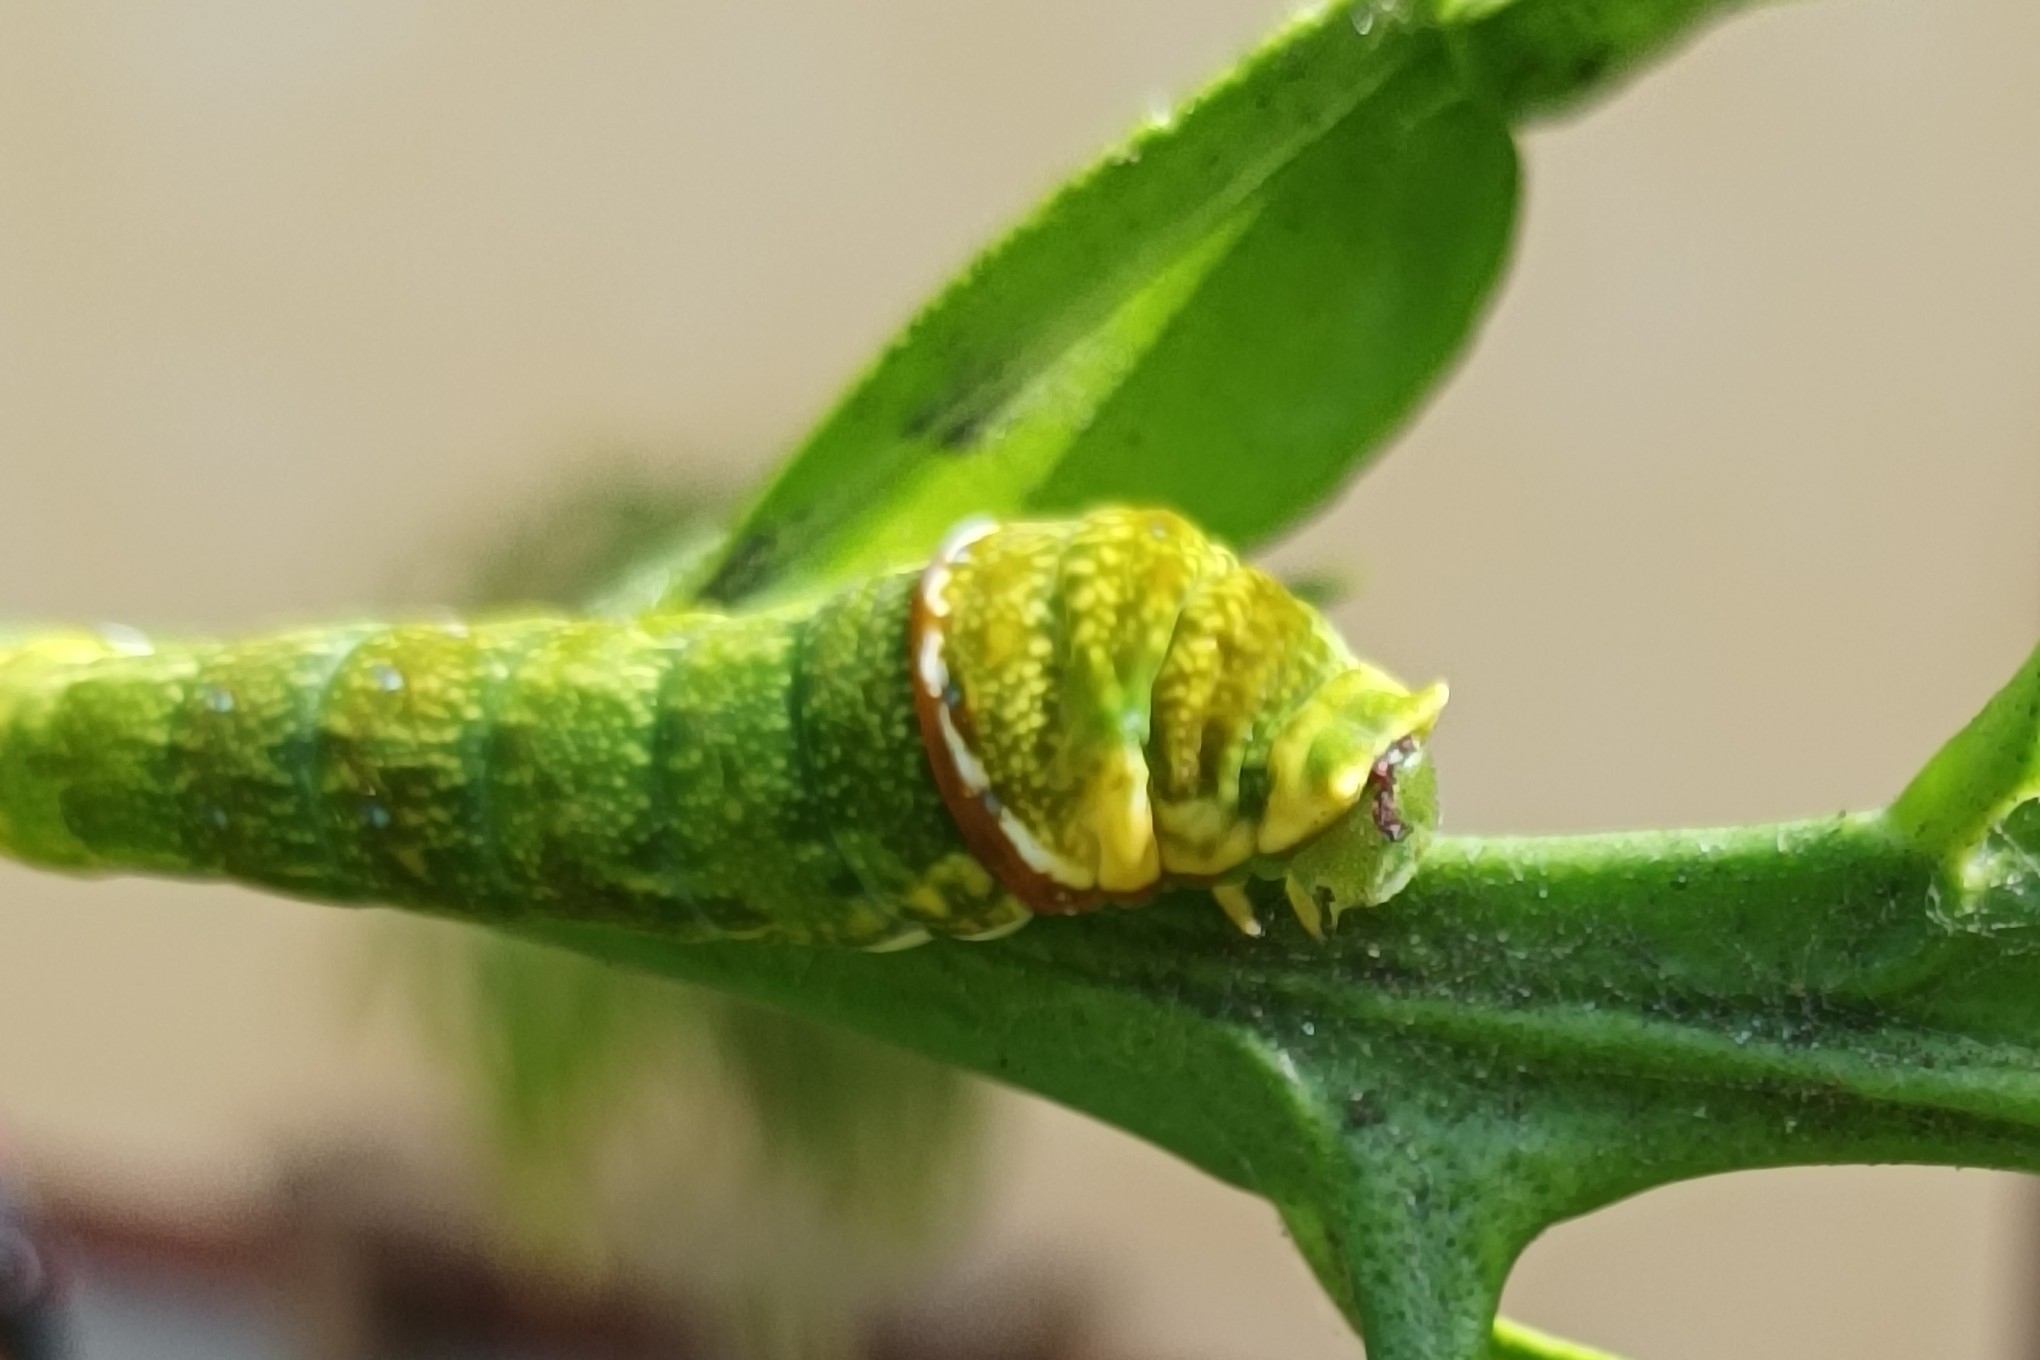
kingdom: Animalia
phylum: Arthropoda
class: Insecta
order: Lepidoptera
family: Papilionidae
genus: Papilio
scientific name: Papilio fuscus
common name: Fuscous swallowtail
